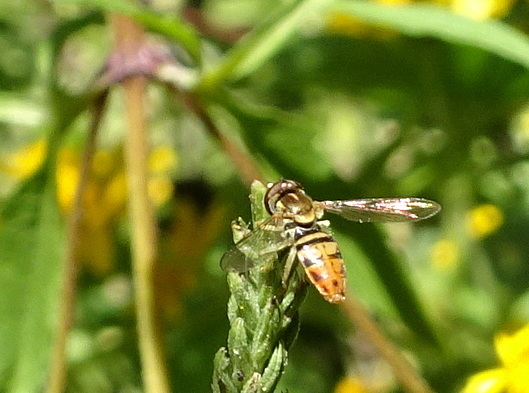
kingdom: Animalia
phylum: Arthropoda
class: Insecta
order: Diptera
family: Syrphidae
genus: Toxomerus
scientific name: Toxomerus marginatus
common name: Syrphid fly
